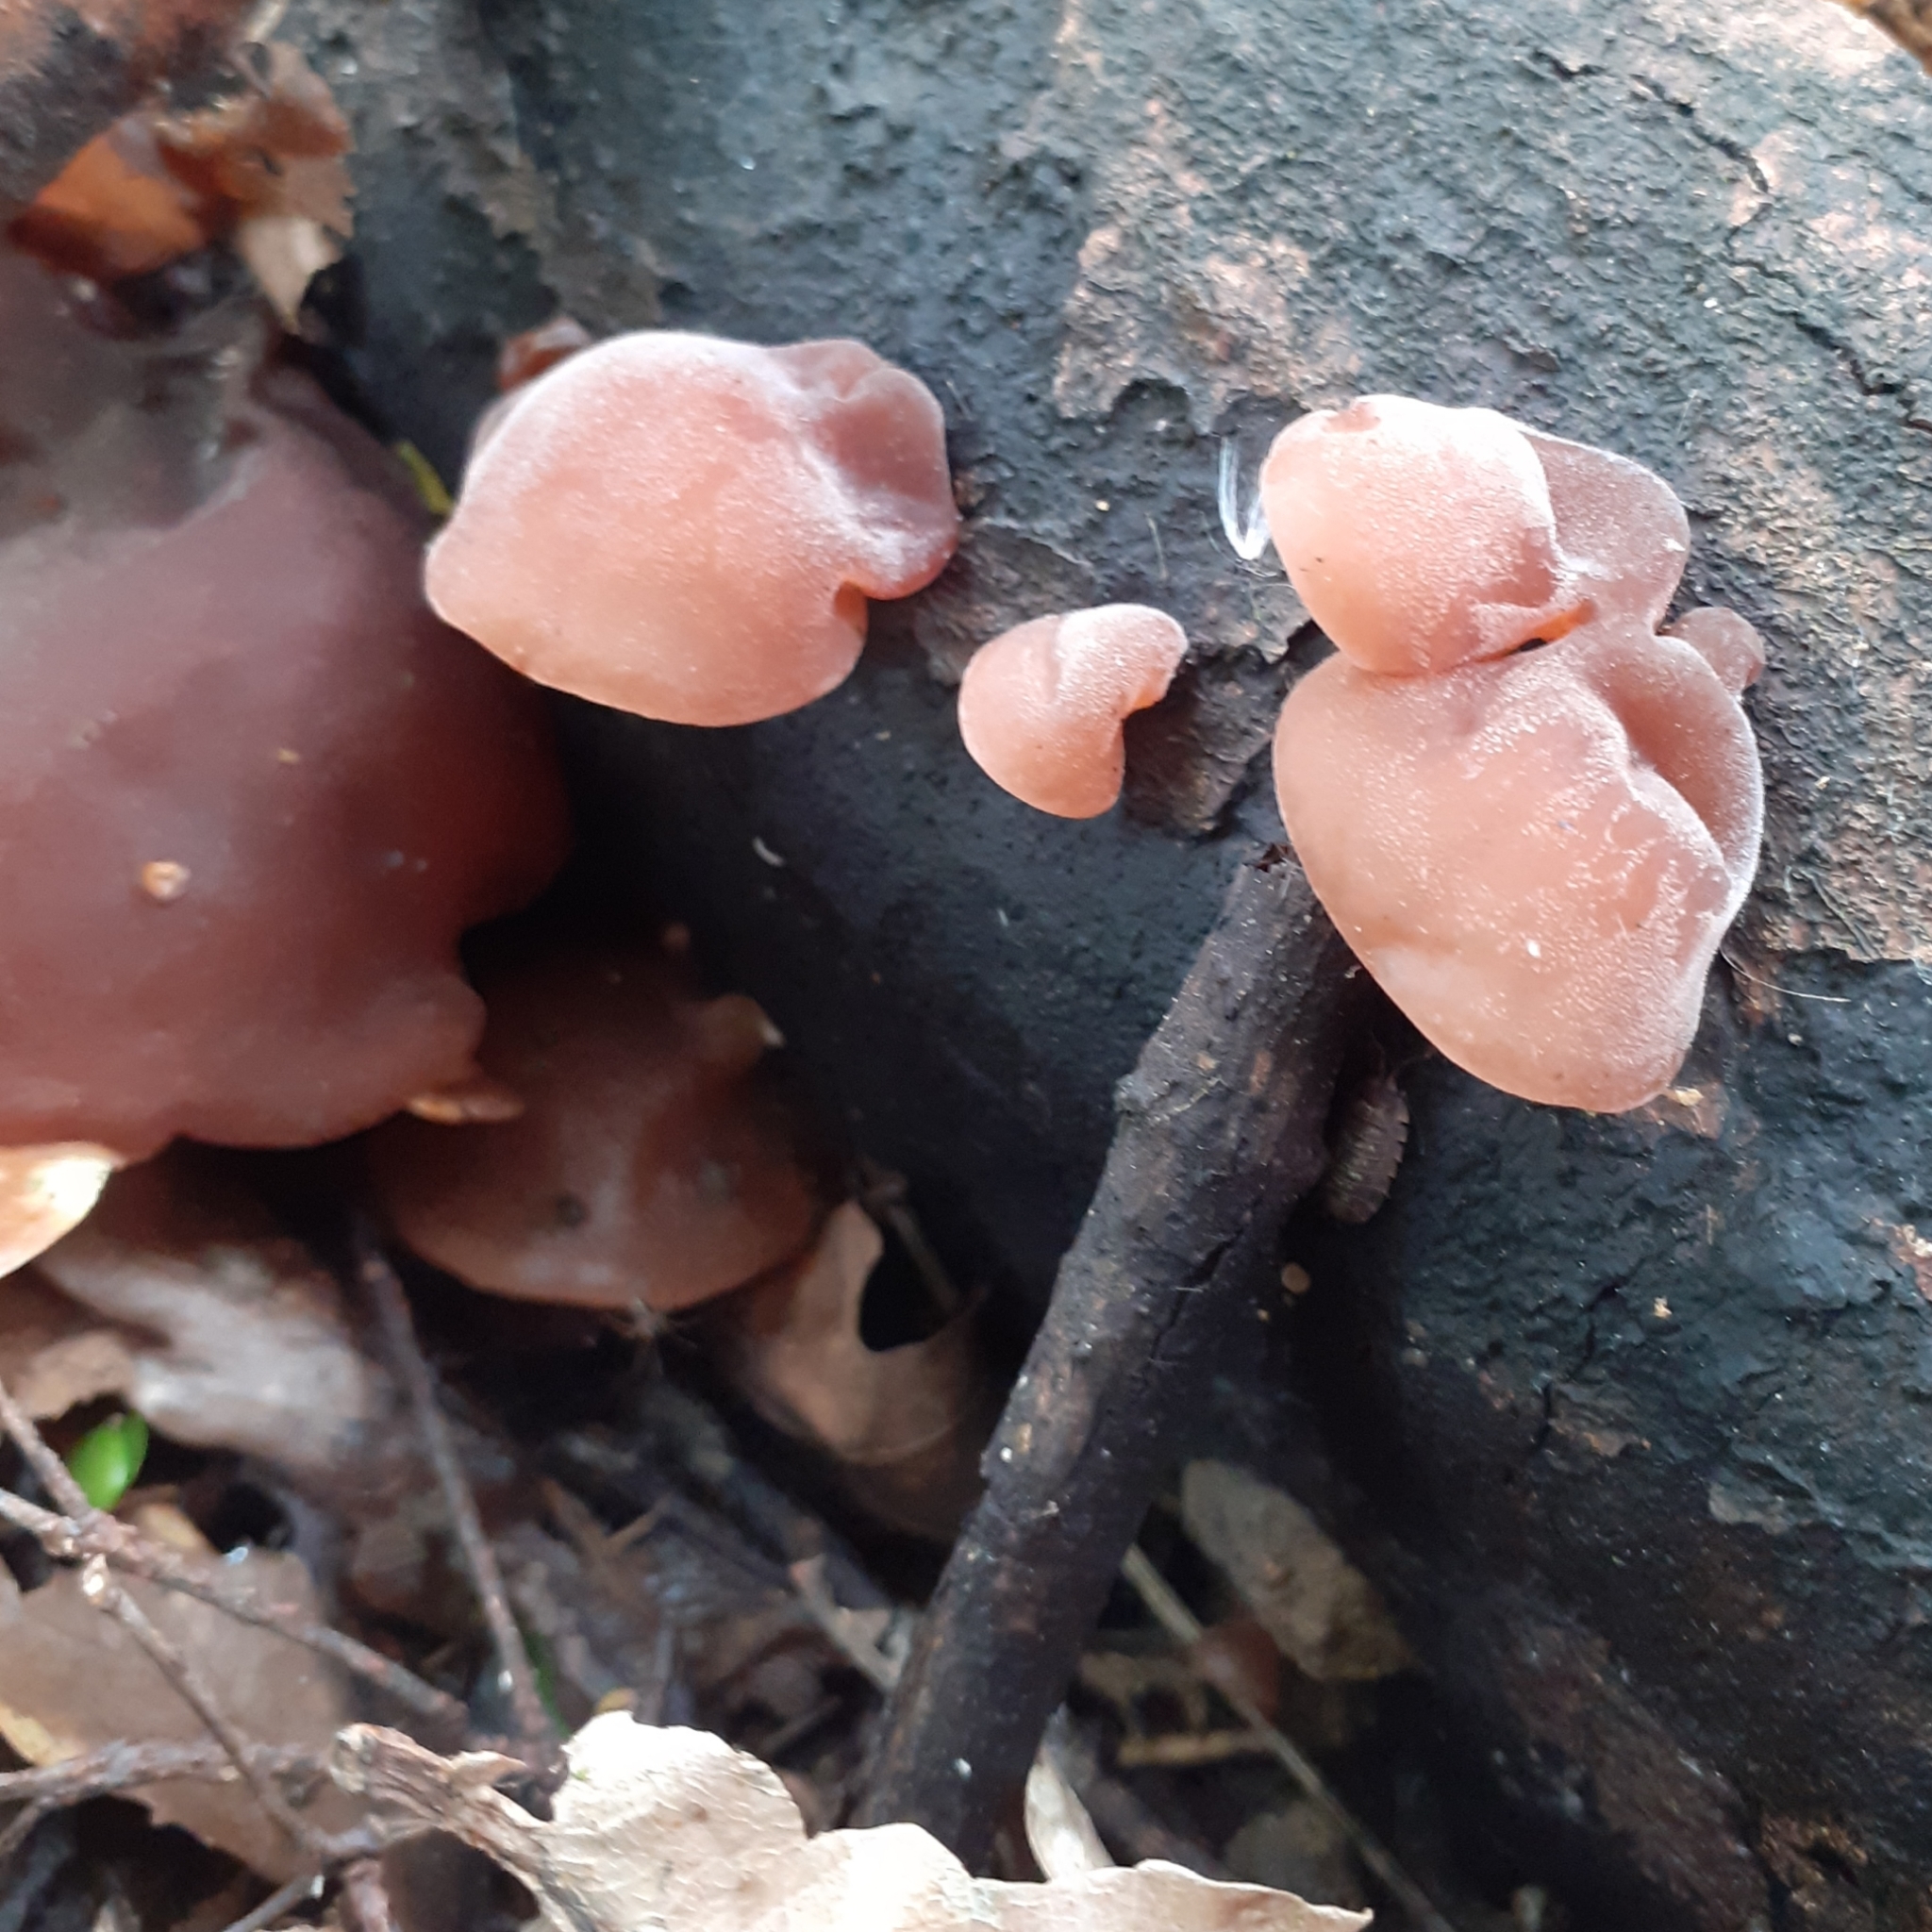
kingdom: Fungi
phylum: Basidiomycota
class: Agaricomycetes
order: Auriculariales
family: Auriculariaceae
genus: Auricularia
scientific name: Auricularia auricula-judae
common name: Jelly ear
